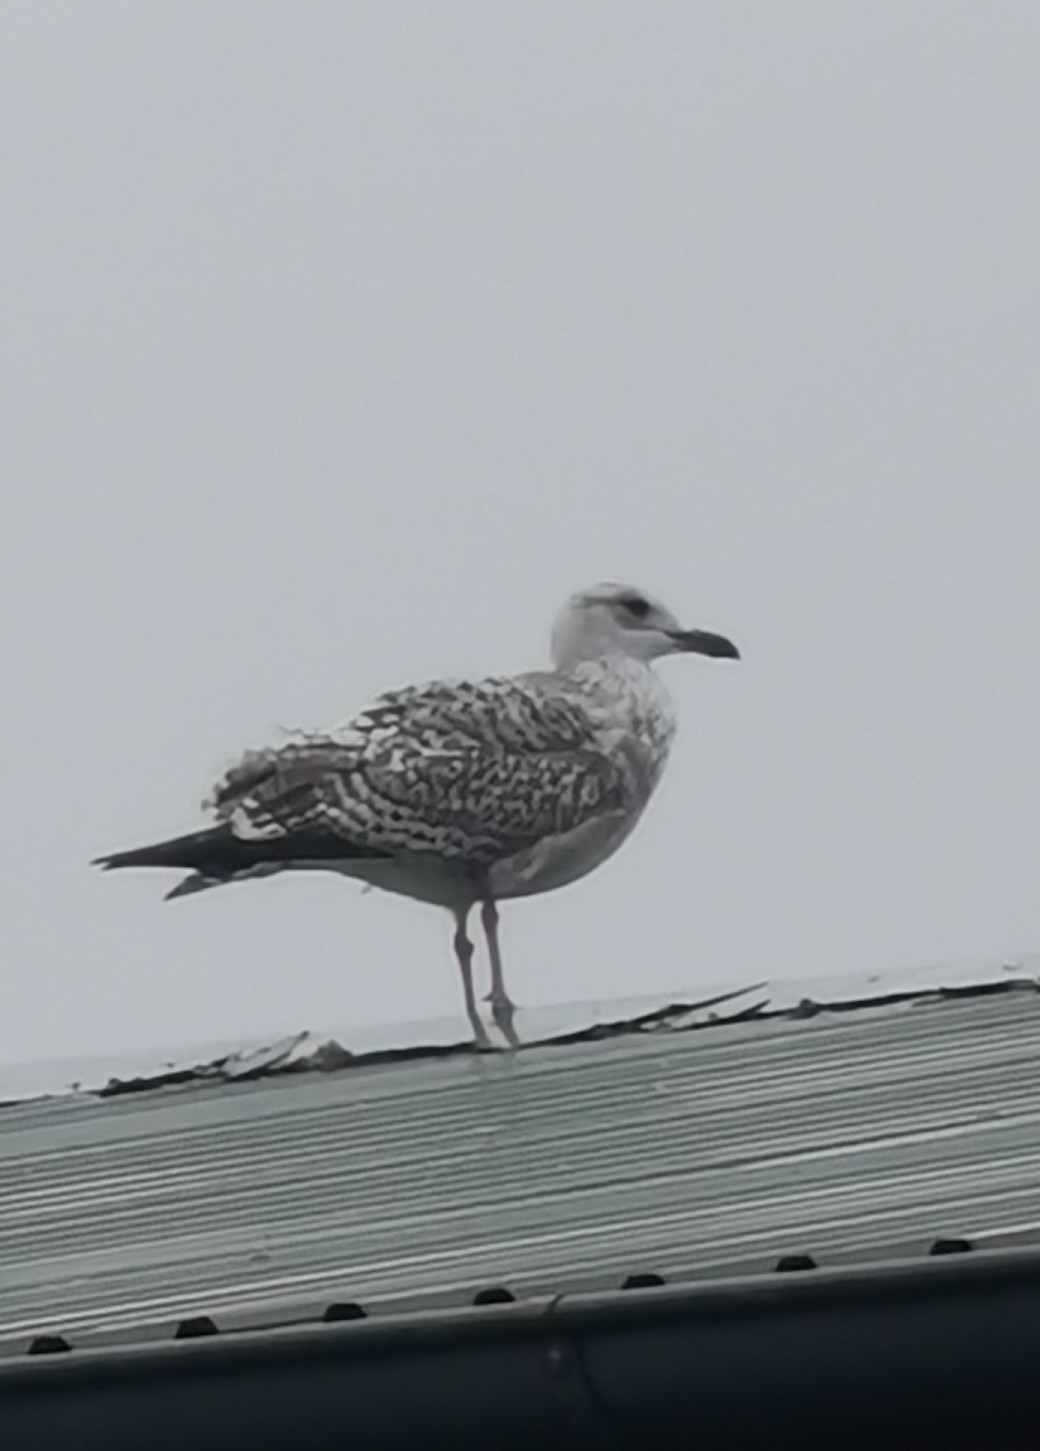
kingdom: Animalia
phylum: Chordata
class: Aves
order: Charadriiformes
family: Laridae
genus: Larus
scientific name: Larus marinus
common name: Great black-backed gull
